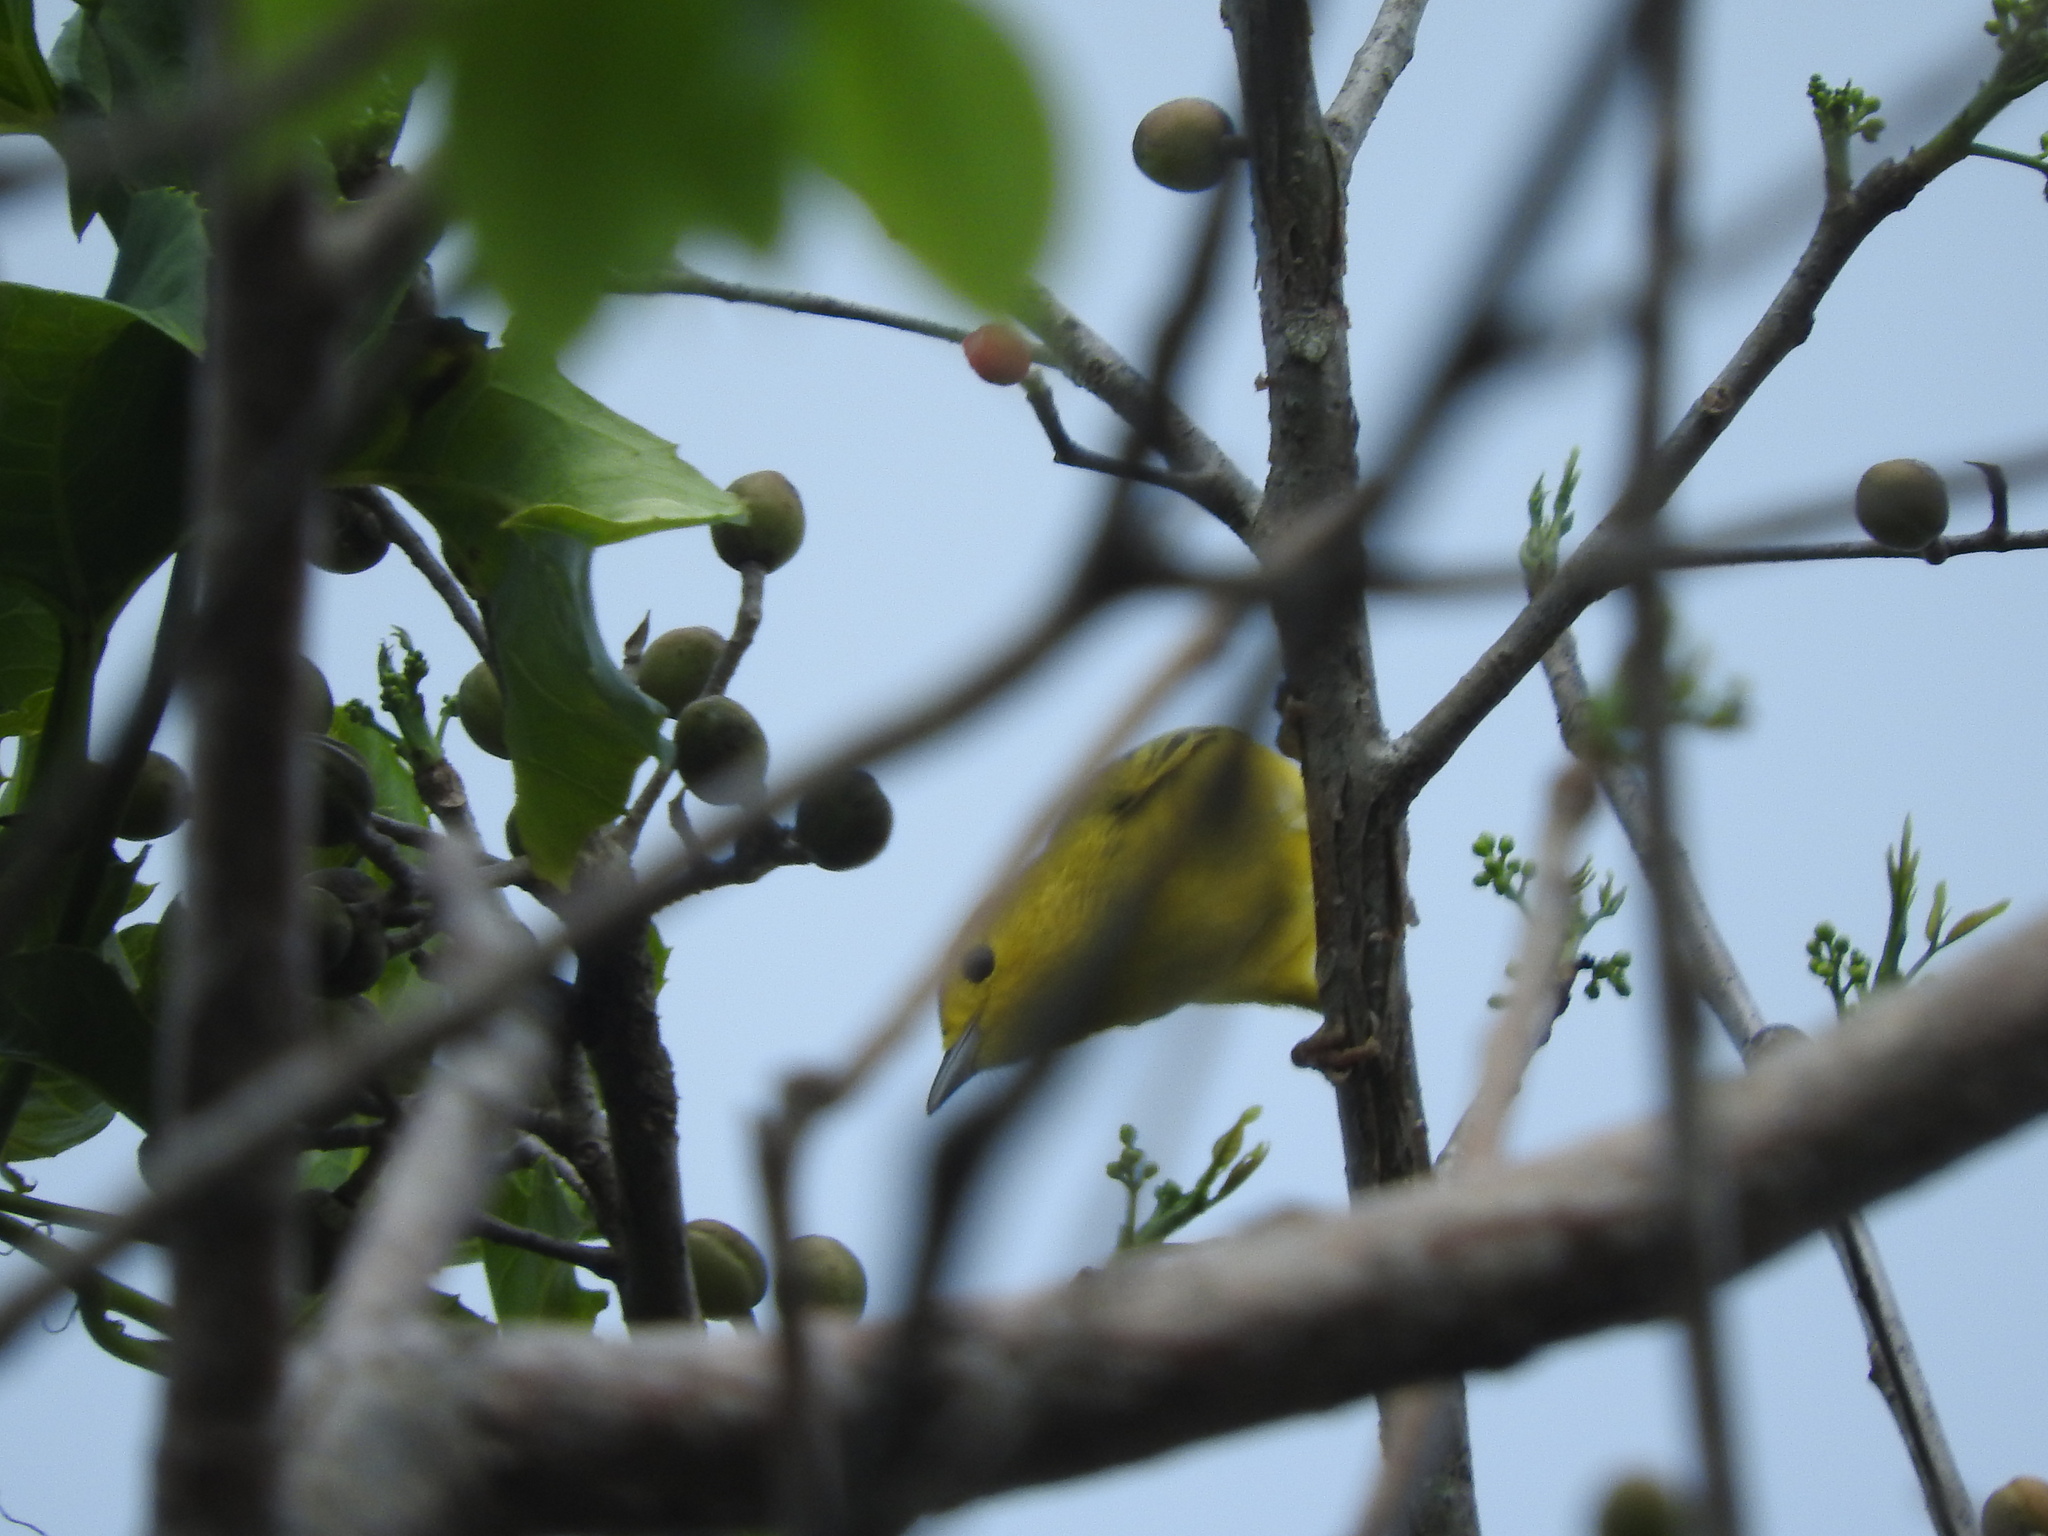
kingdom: Animalia
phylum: Chordata
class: Aves
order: Passeriformes
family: Parulidae
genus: Setophaga
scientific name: Setophaga petechia
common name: Yellow warbler
